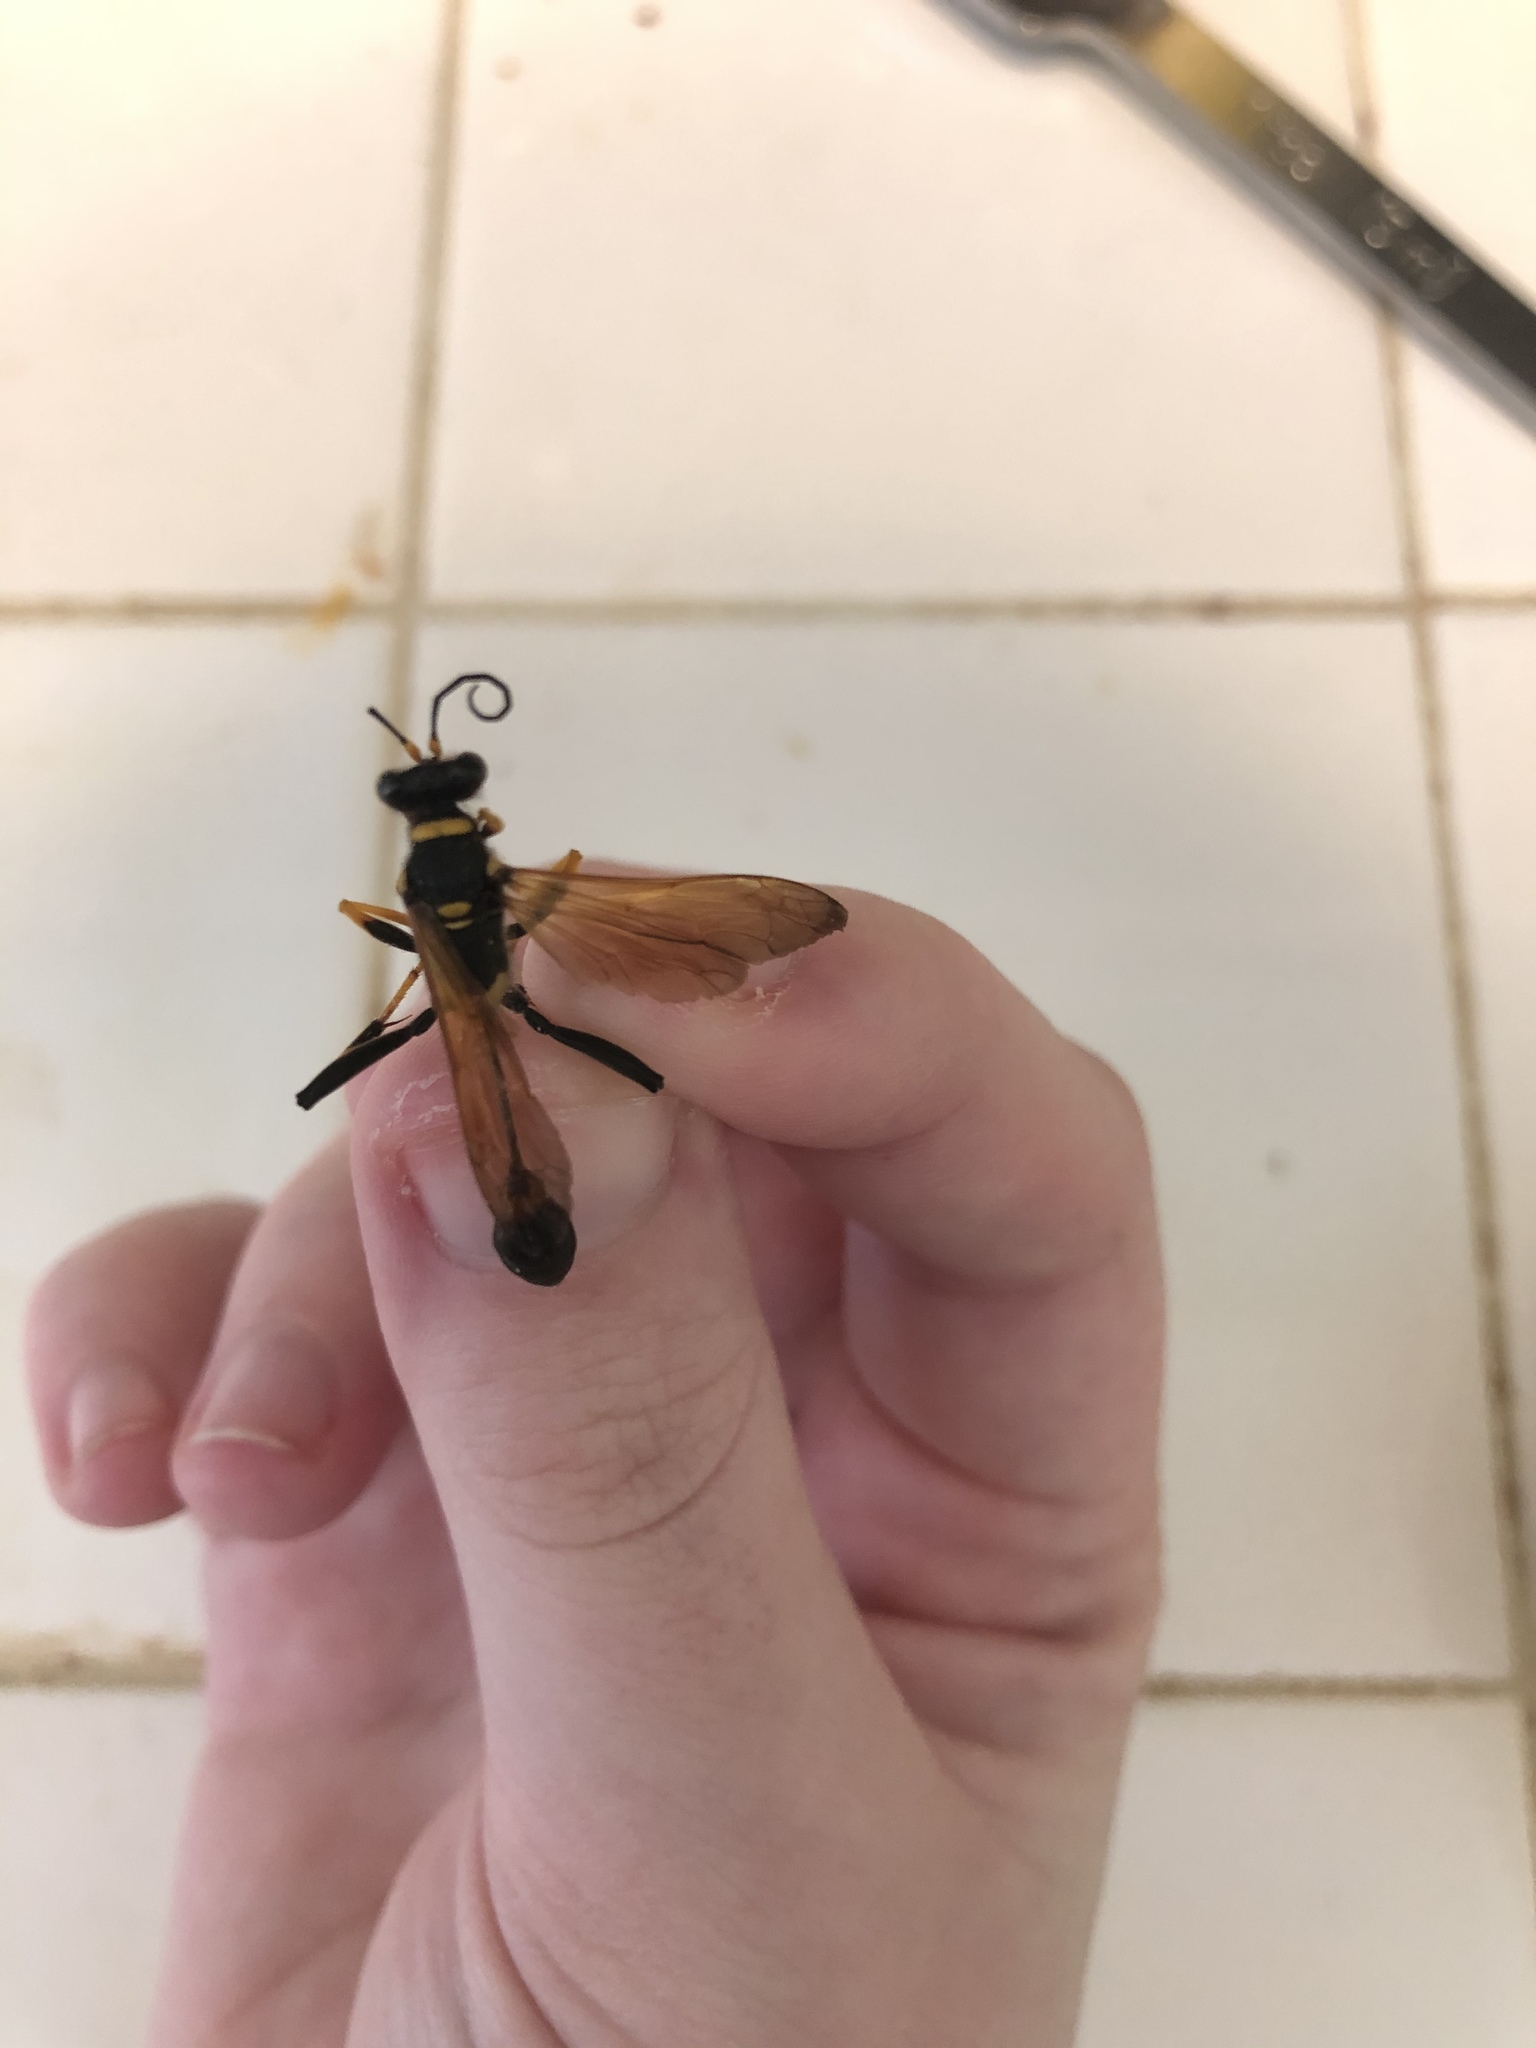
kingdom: Animalia
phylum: Arthropoda
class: Insecta
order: Hymenoptera
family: Sphecidae
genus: Sceliphron
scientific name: Sceliphron caementarium
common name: Mud dauber
